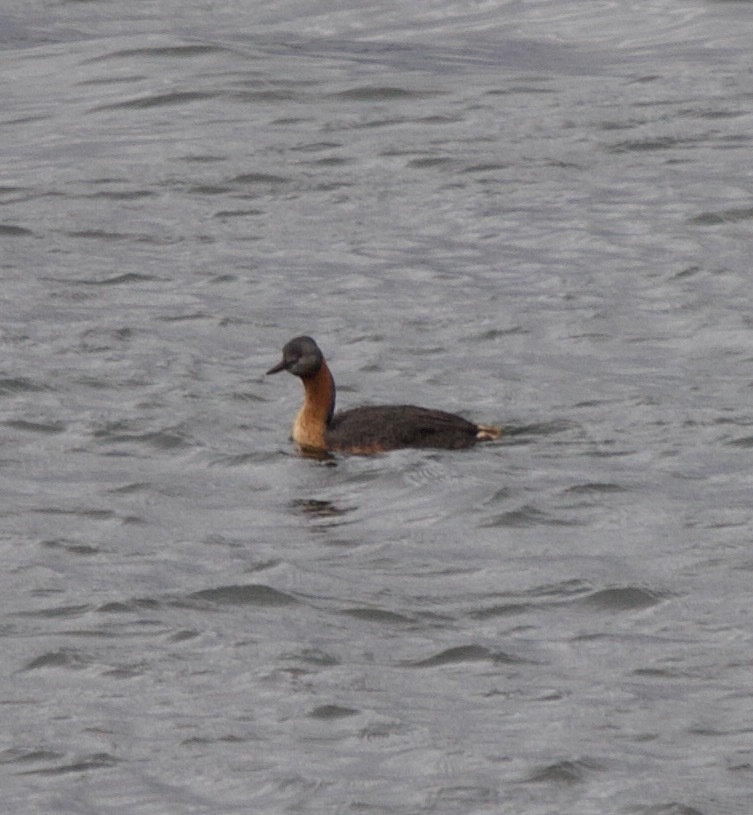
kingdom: Animalia
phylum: Chordata
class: Aves
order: Podicipediformes
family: Podicipedidae
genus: Podiceps
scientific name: Podiceps major
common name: Great grebe
